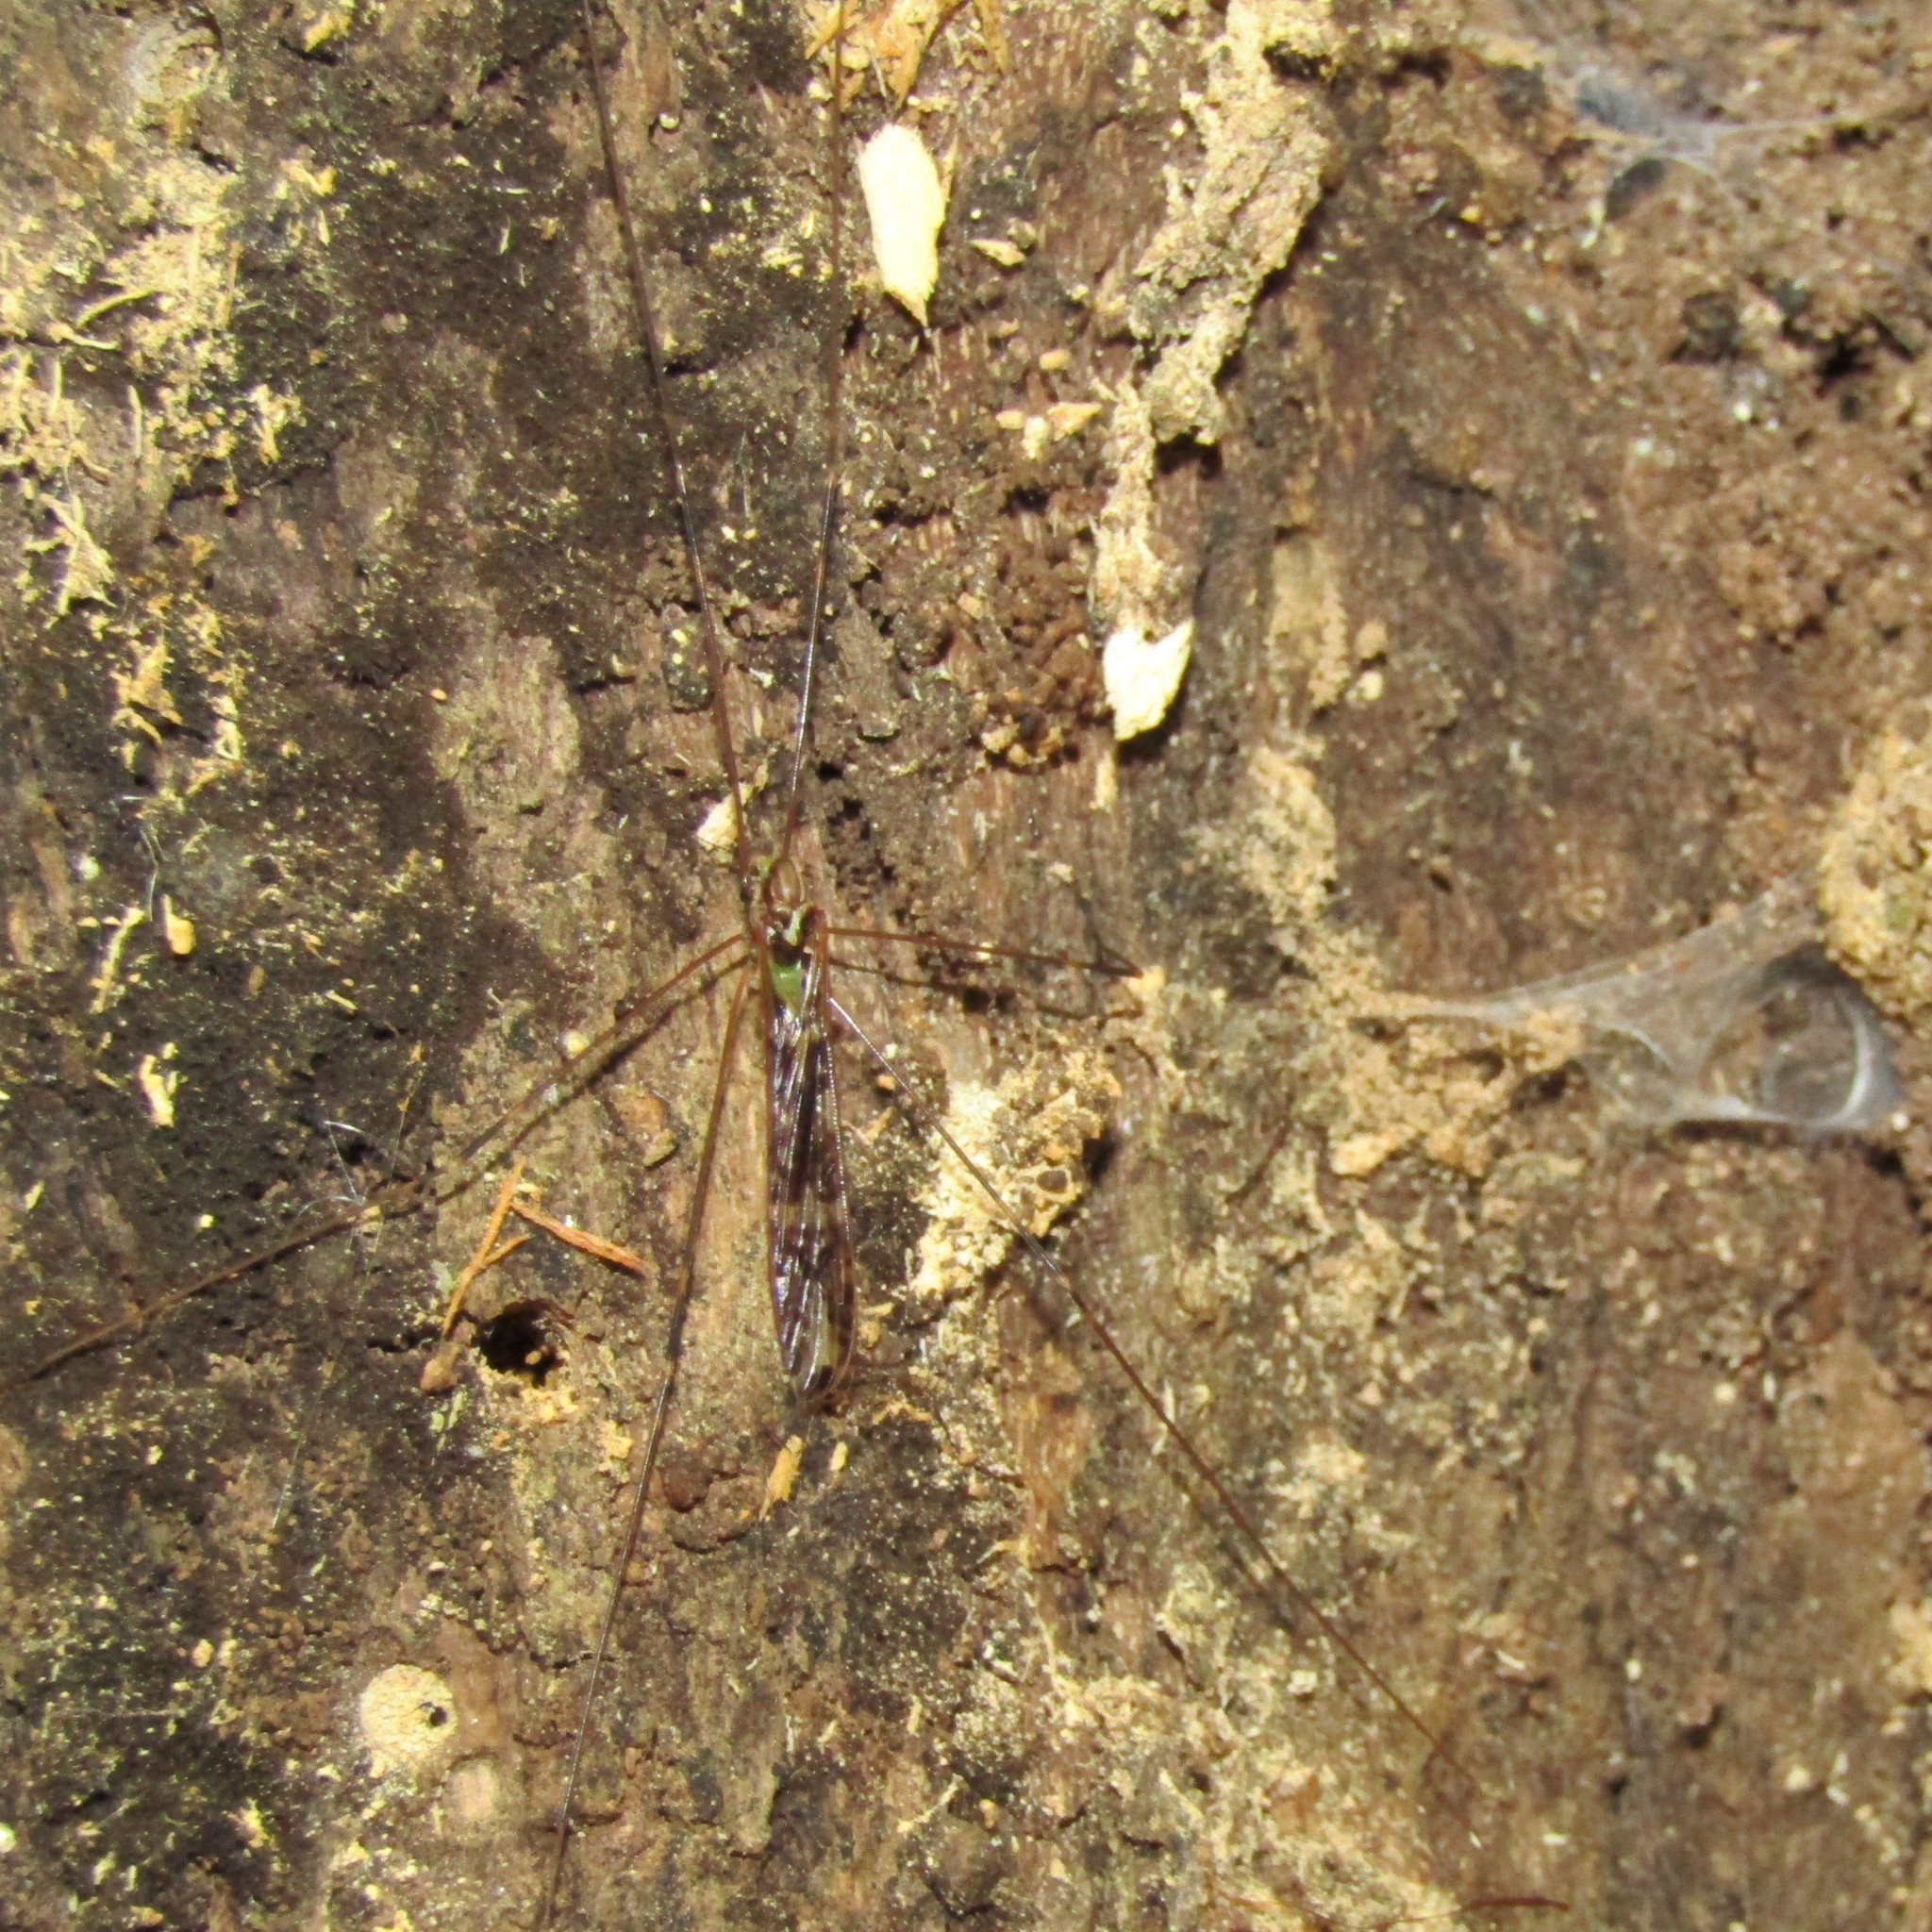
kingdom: Animalia
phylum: Arthropoda
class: Insecta
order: Diptera
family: Limoniidae
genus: Discobola
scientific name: Discobola dohrni
